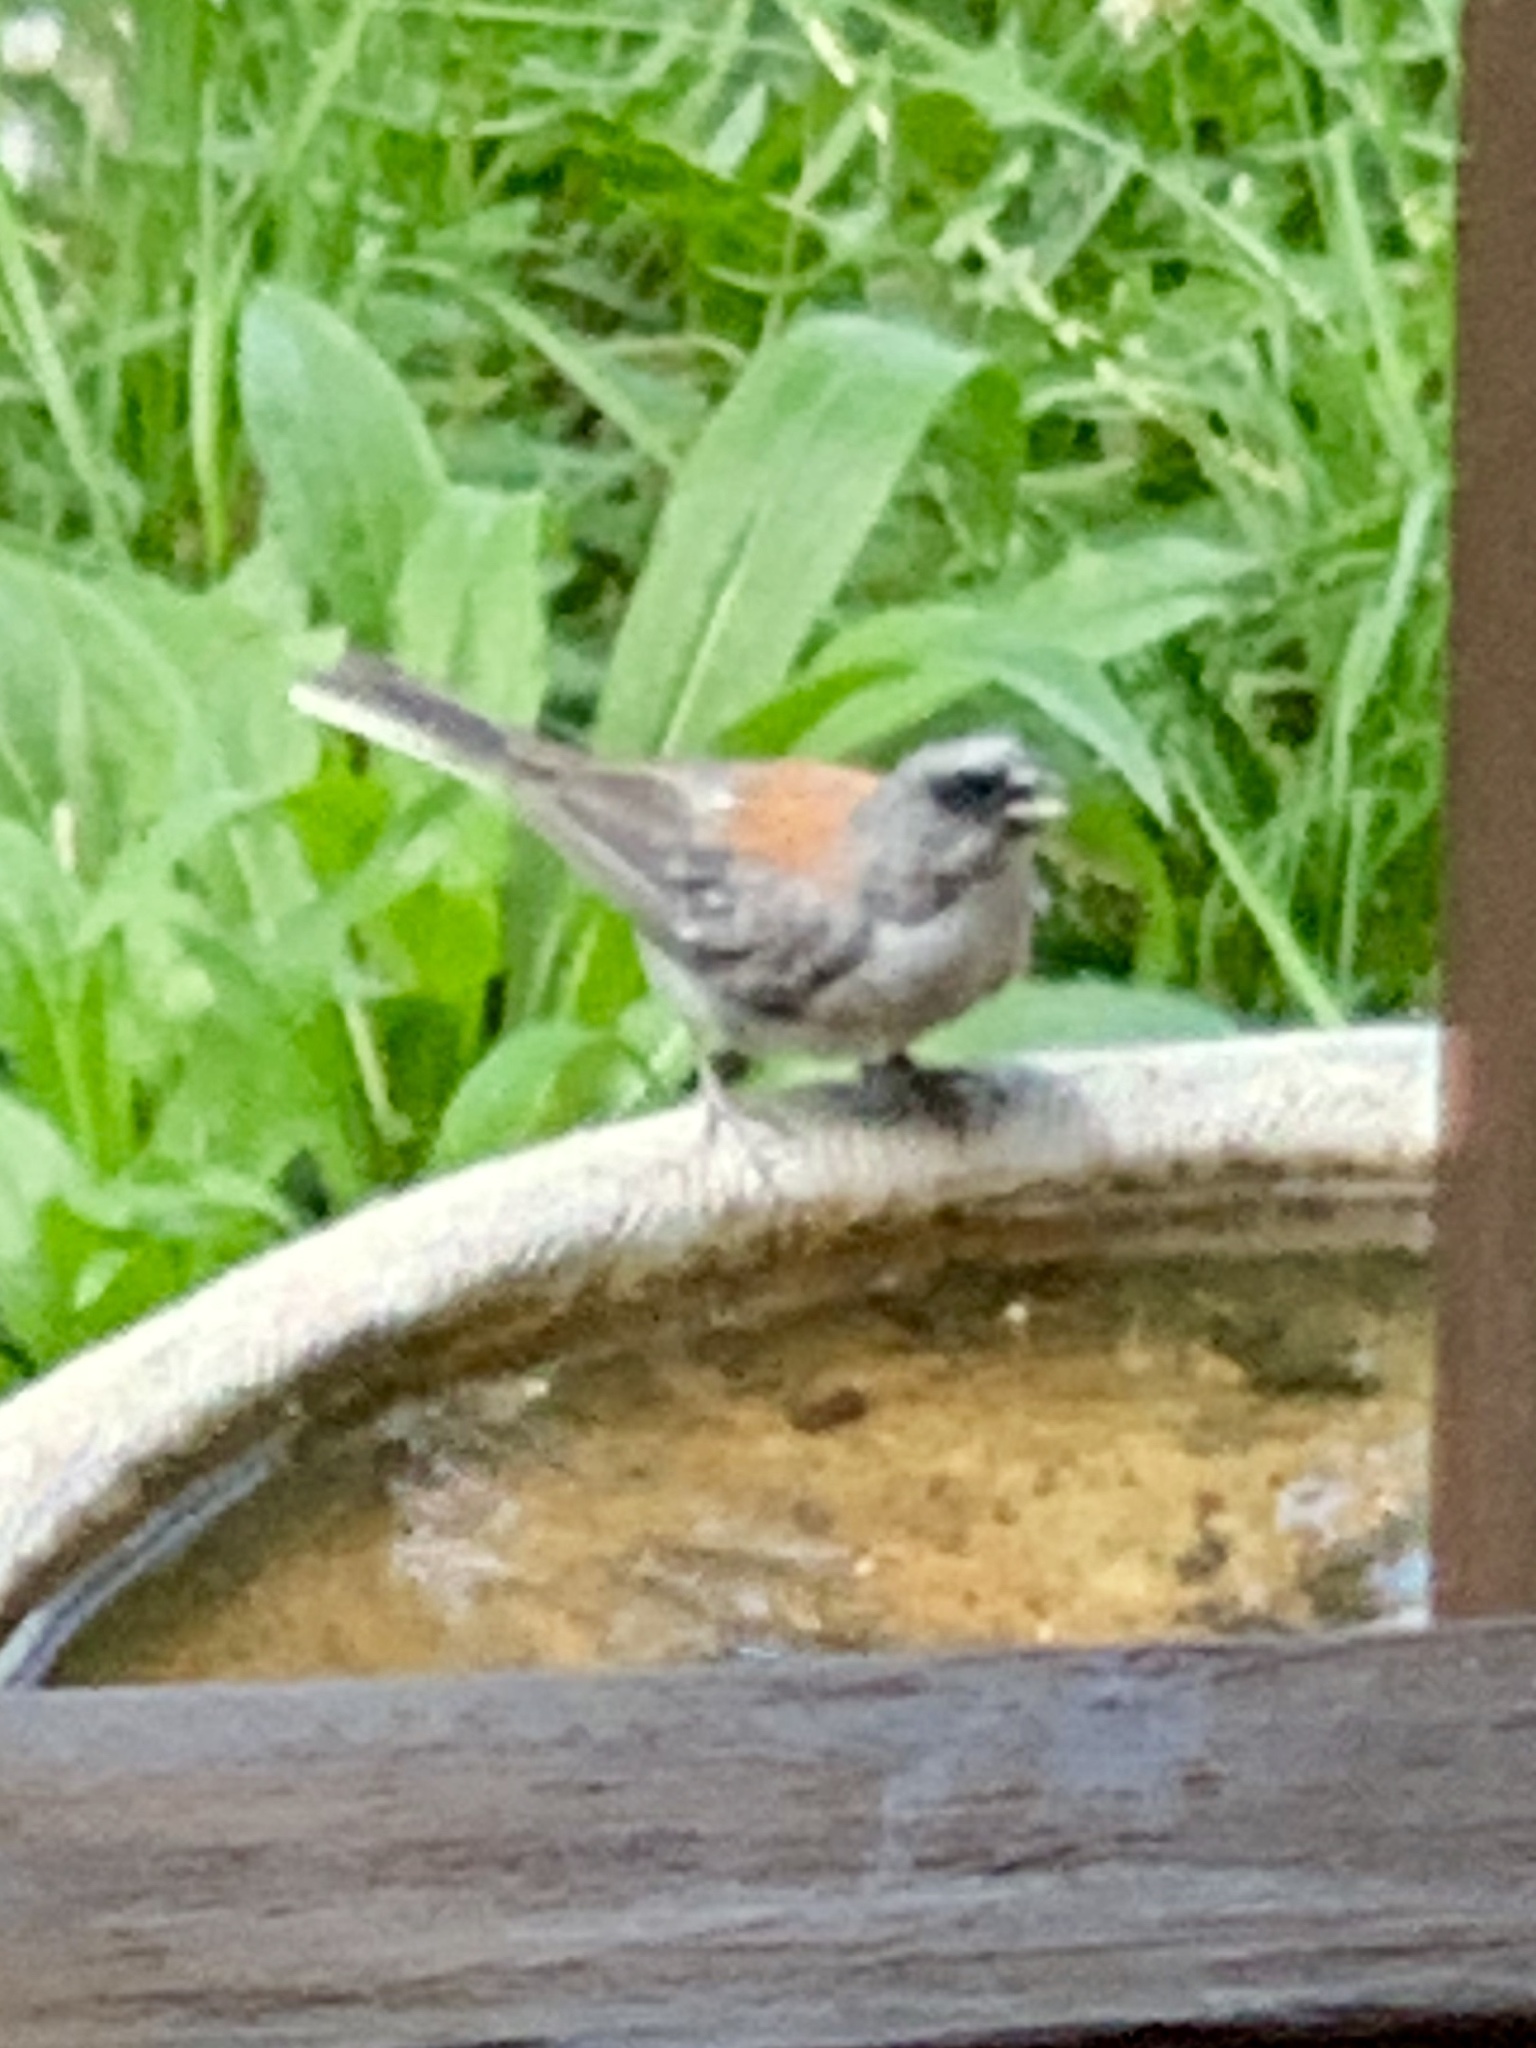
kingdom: Animalia
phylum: Chordata
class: Aves
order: Passeriformes
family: Passerellidae
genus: Junco
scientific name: Junco hyemalis
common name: Dark-eyed junco
